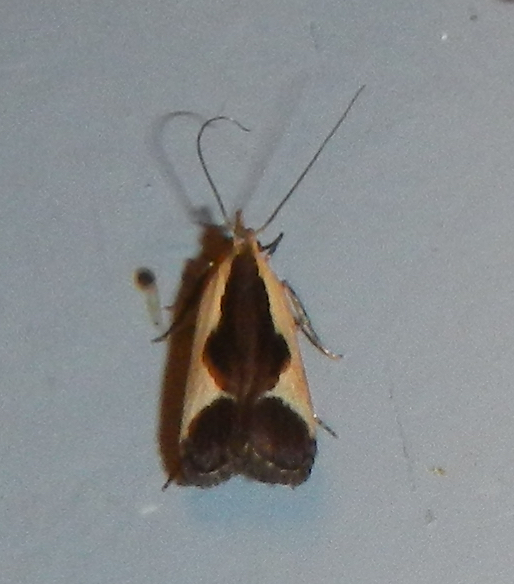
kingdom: Animalia
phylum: Arthropoda
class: Insecta
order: Lepidoptera
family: Gelechiidae
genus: Dichomeris
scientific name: Dichomeris flavocostella
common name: Cream-edged dichomeris moth
